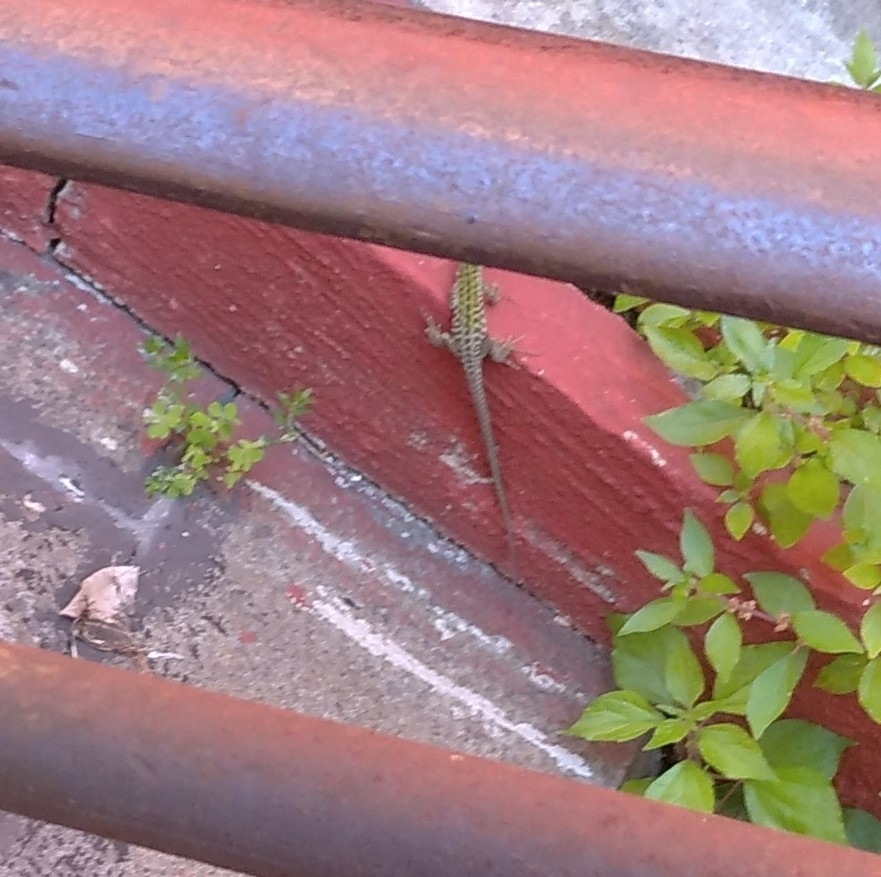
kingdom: Animalia
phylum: Chordata
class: Squamata
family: Lacertidae
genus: Podarcis
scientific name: Podarcis siculus
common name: Italian wall lizard
